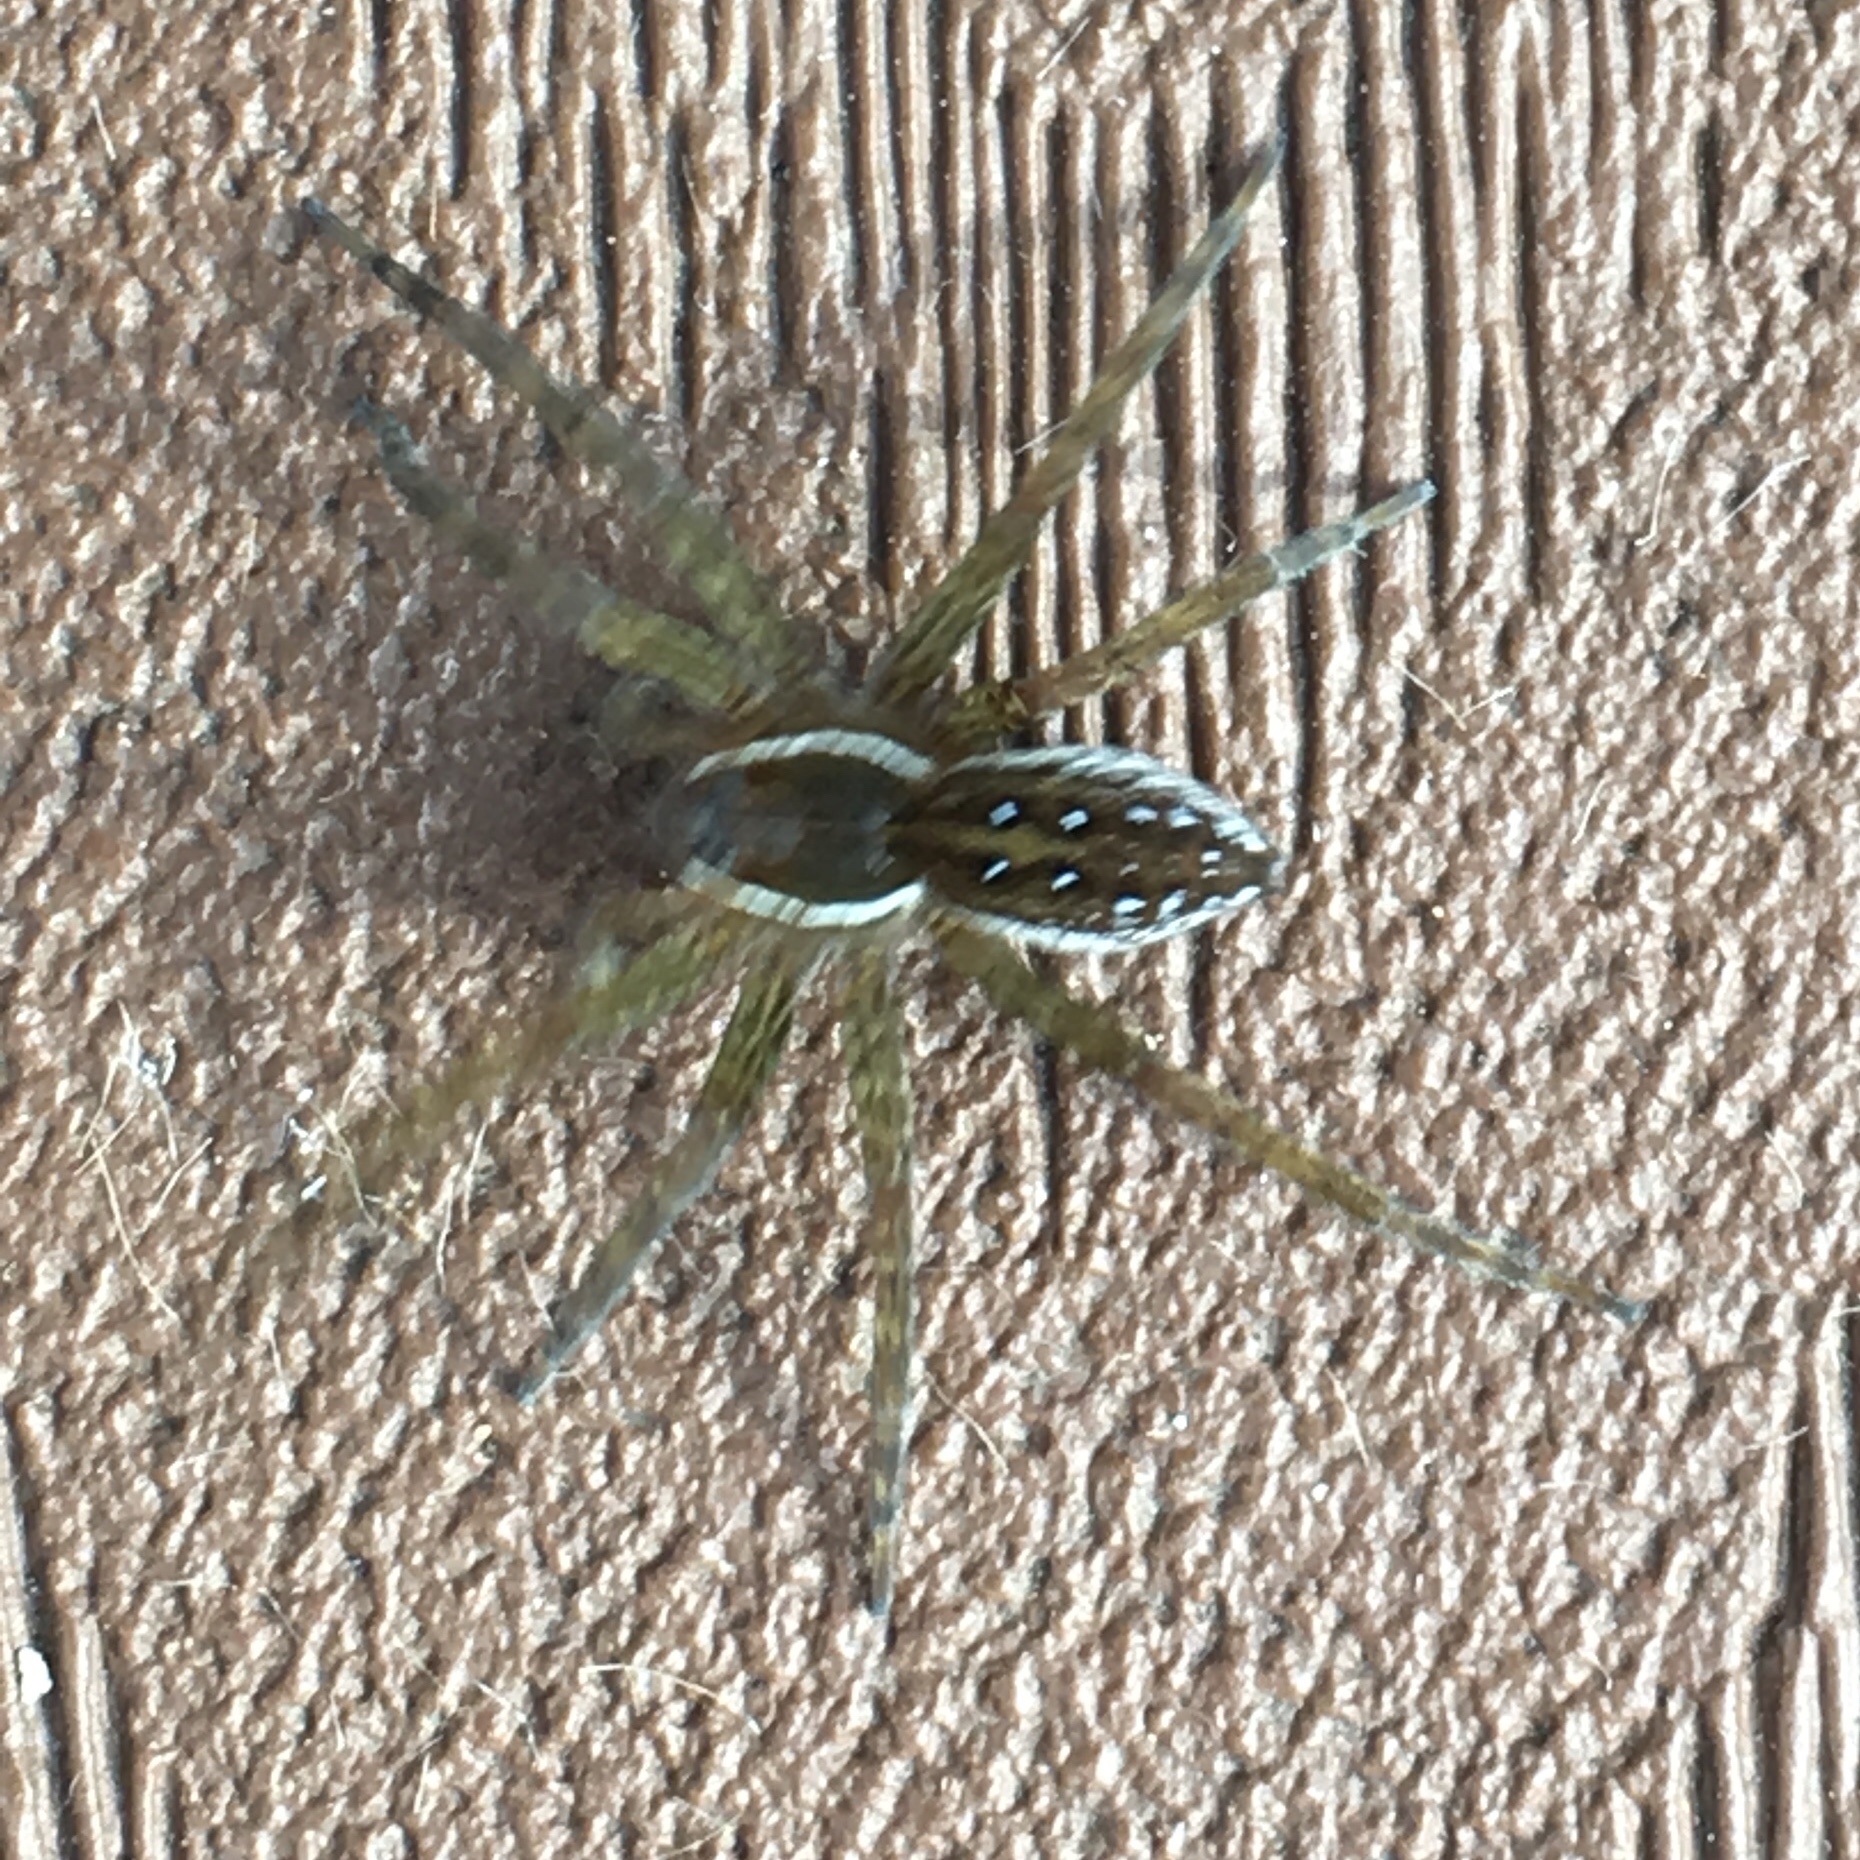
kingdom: Animalia
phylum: Arthropoda
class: Arachnida
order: Araneae
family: Pisauridae
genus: Dolomedes
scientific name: Dolomedes triton
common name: Six-spotted fishing spider
